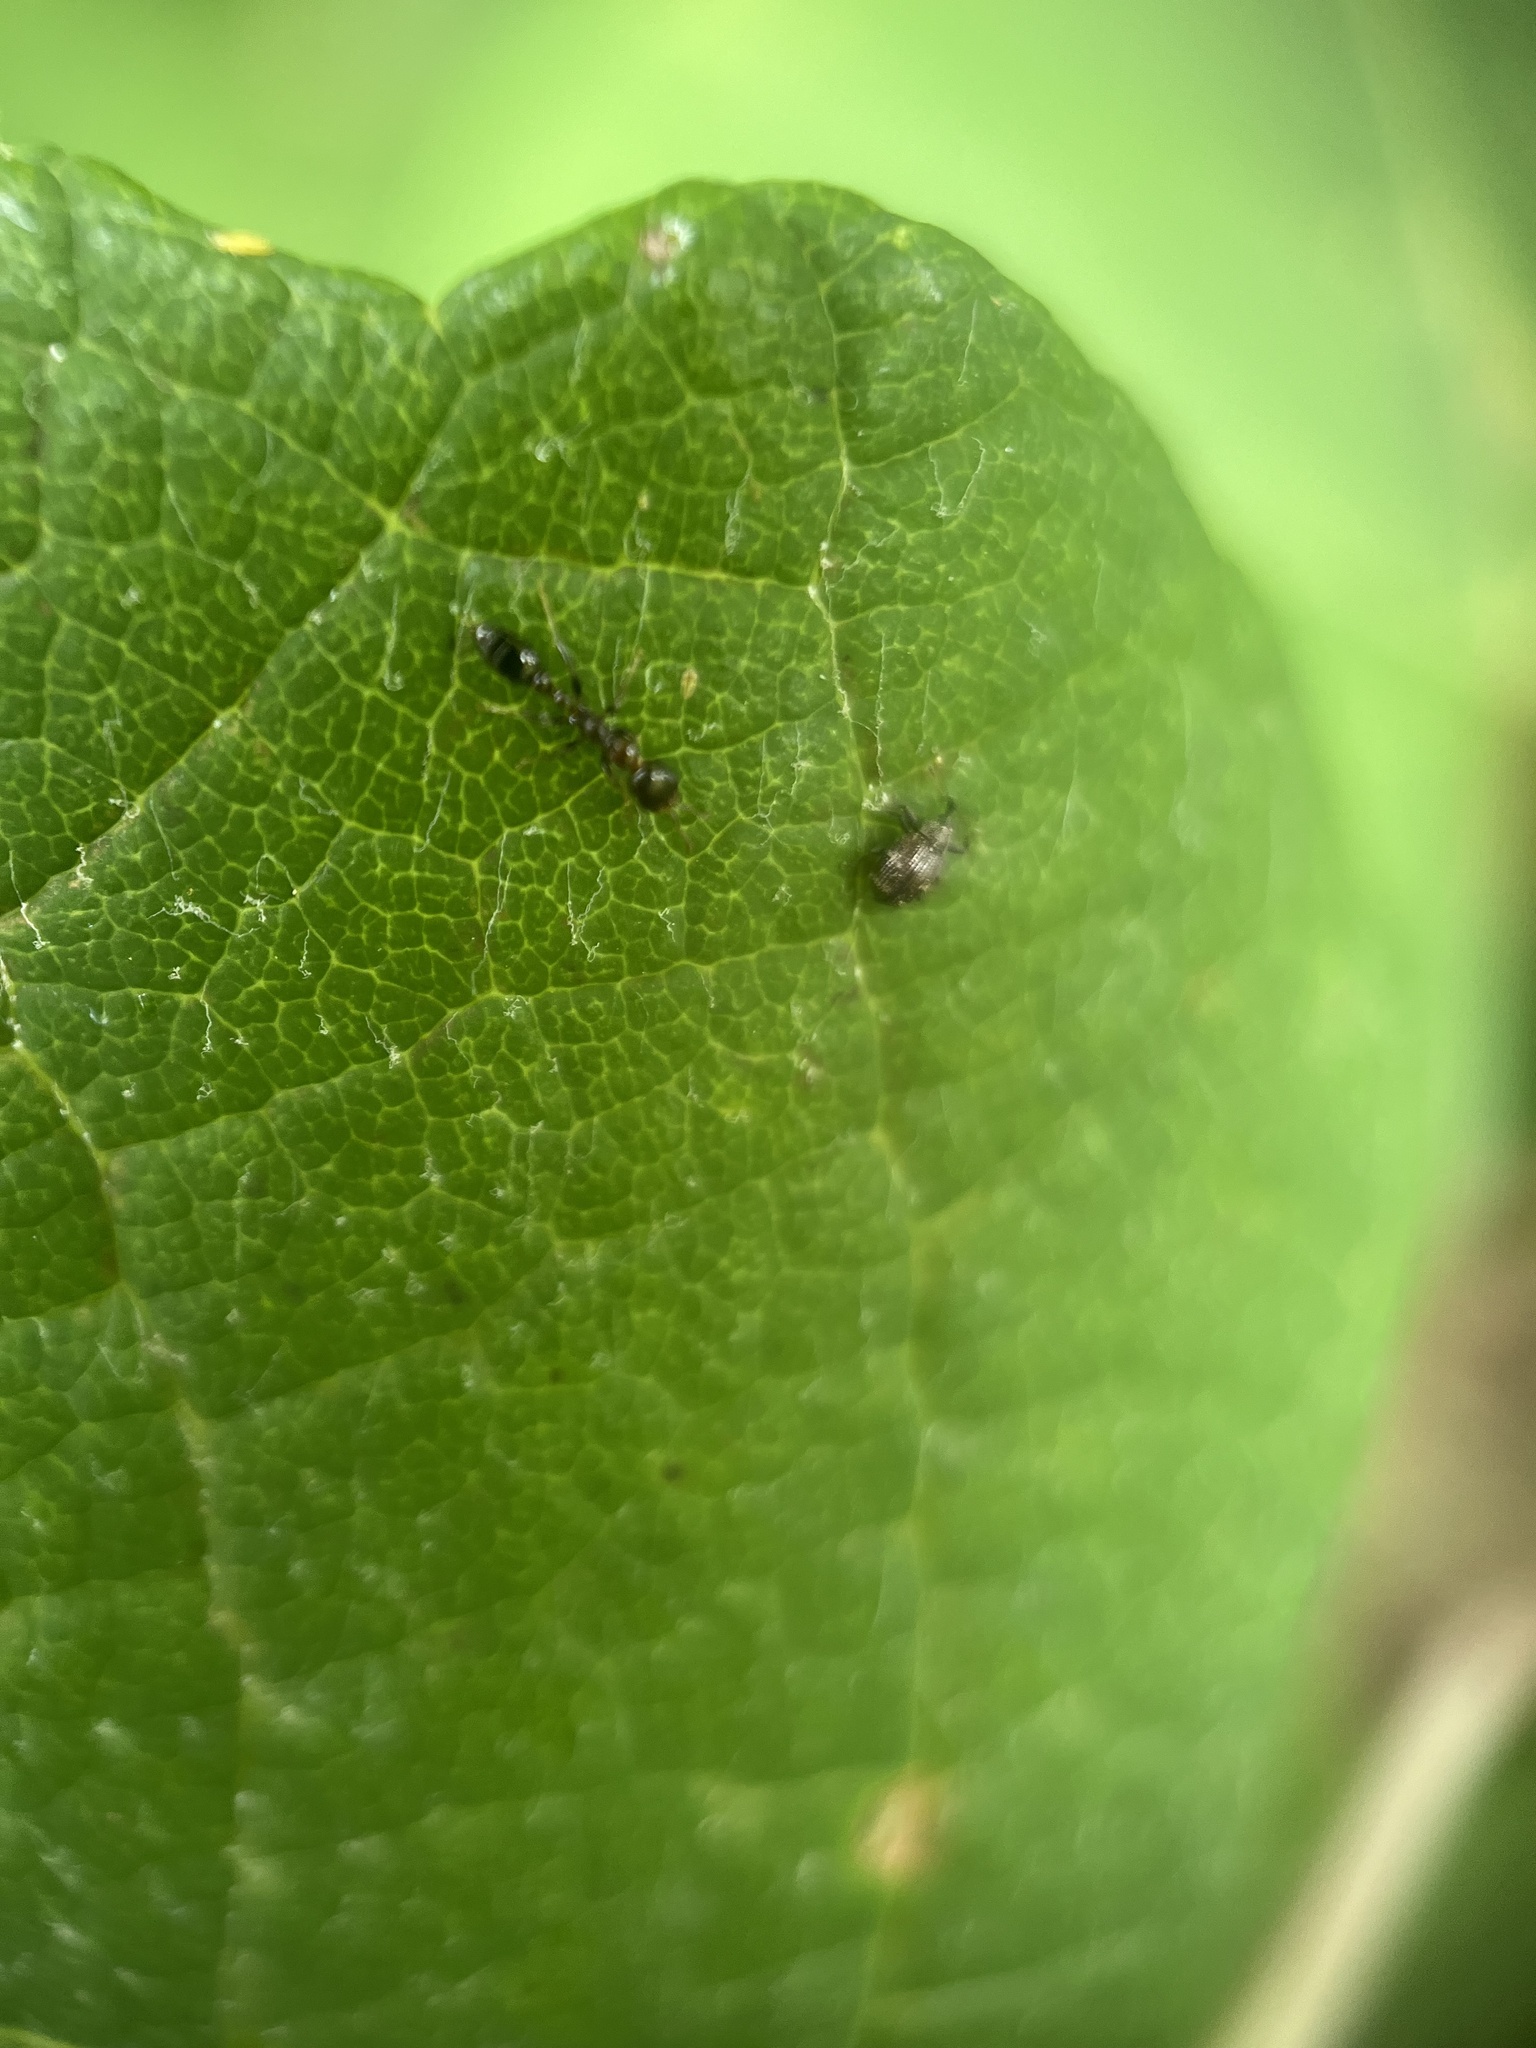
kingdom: Animalia
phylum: Arthropoda
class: Insecta
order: Hymenoptera
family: Formicidae
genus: Pseudomyrmex
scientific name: Pseudomyrmex ejectus
